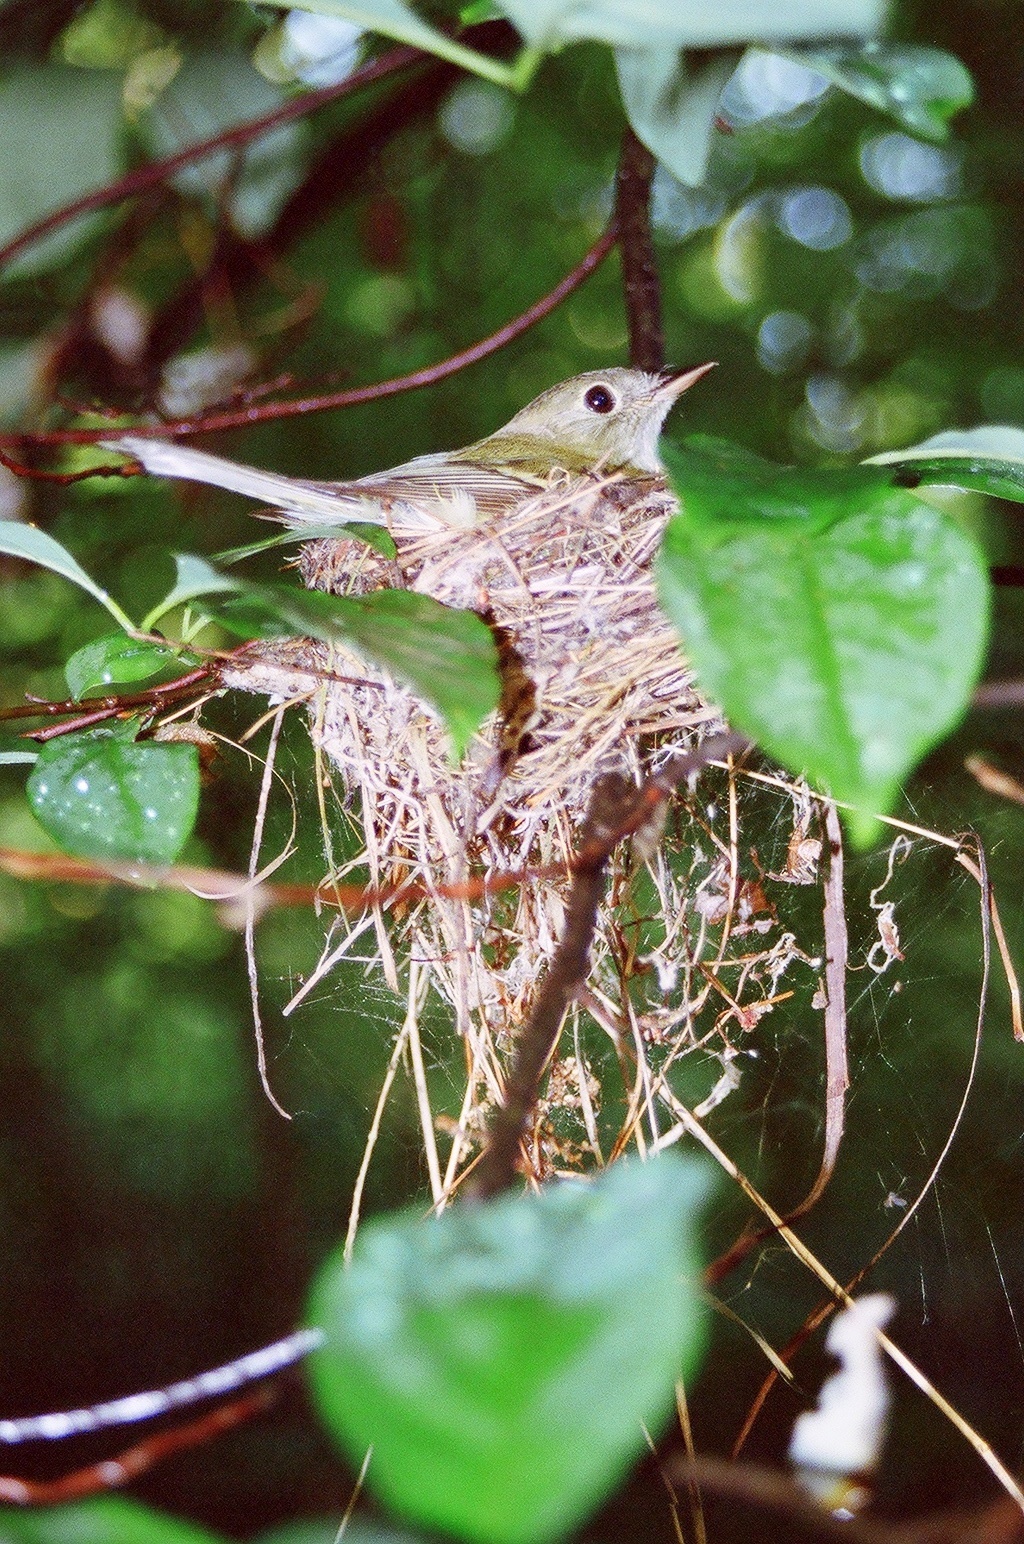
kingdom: Animalia
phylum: Chordata
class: Aves
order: Passeriformes
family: Tyrannidae
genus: Empidonax
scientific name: Empidonax virescens
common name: Acadian flycatcher
